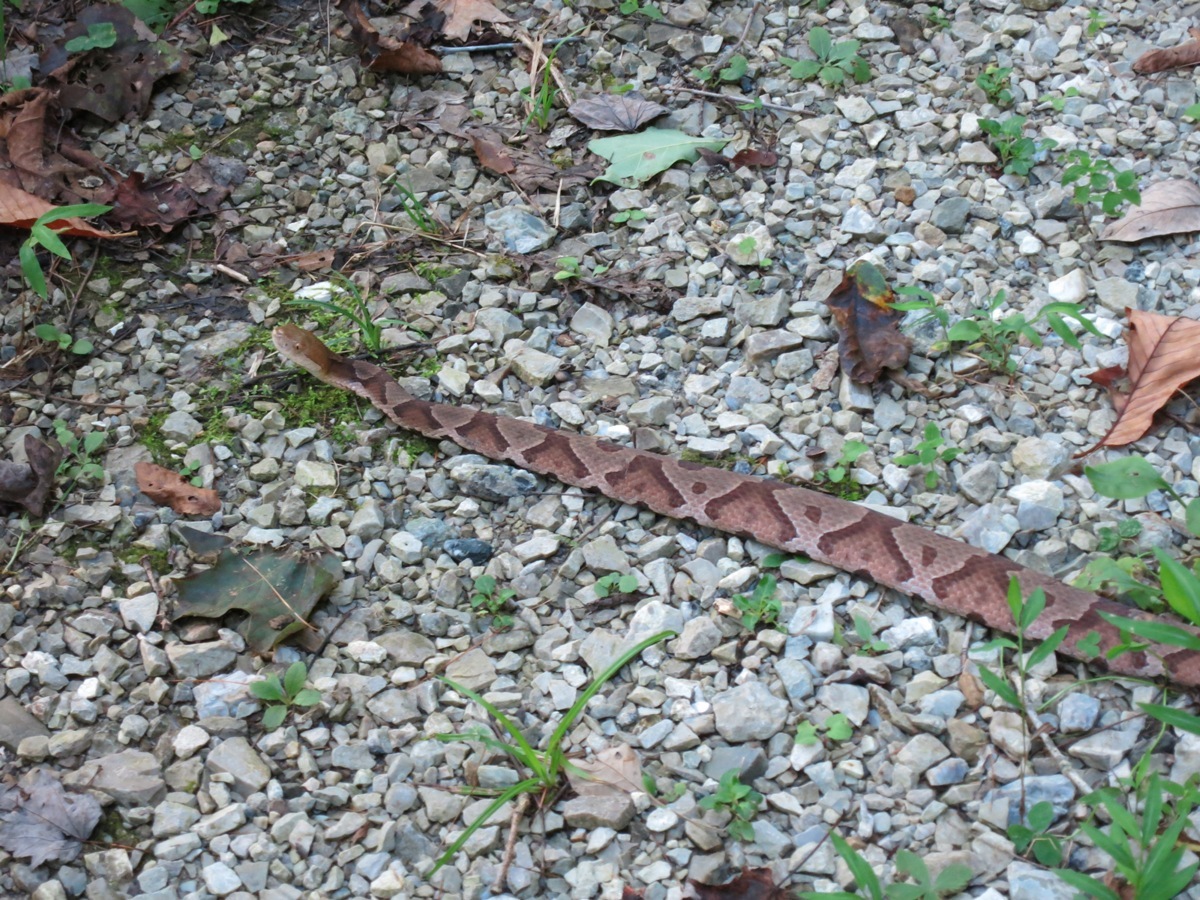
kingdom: Animalia
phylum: Chordata
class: Squamata
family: Viperidae
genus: Agkistrodon
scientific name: Agkistrodon contortrix
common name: Northern copperhead
